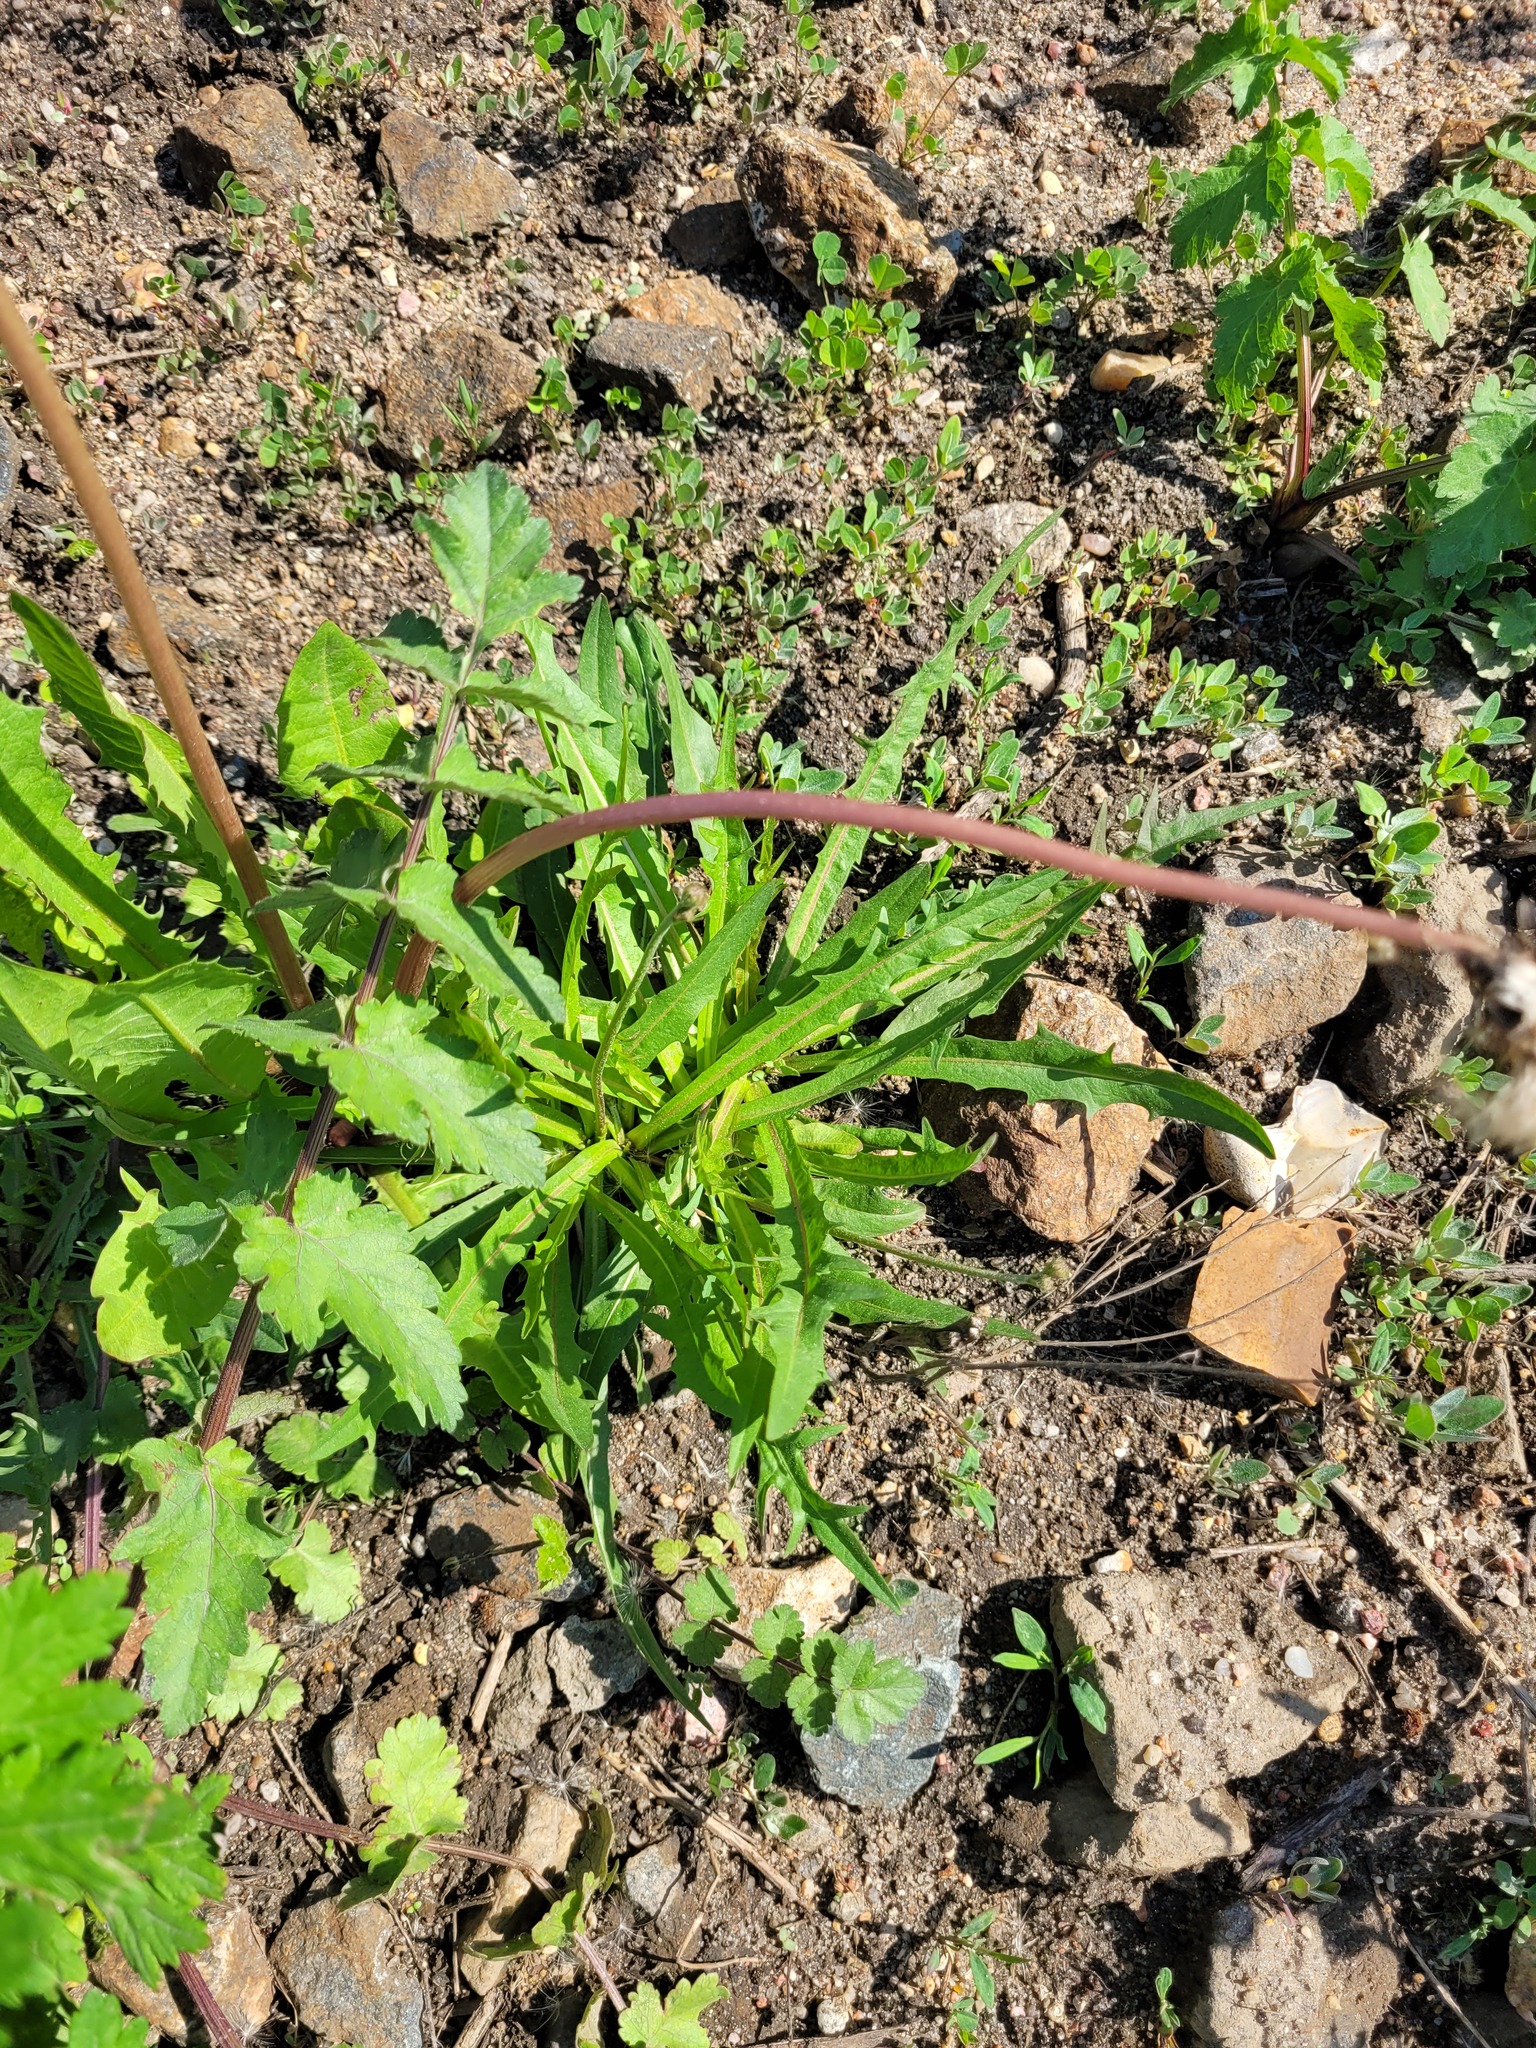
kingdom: Plantae
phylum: Tracheophyta
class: Magnoliopsida
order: Asterales
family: Asteraceae
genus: Scorzoneroides
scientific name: Scorzoneroides autumnalis
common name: Autumn hawkbit
